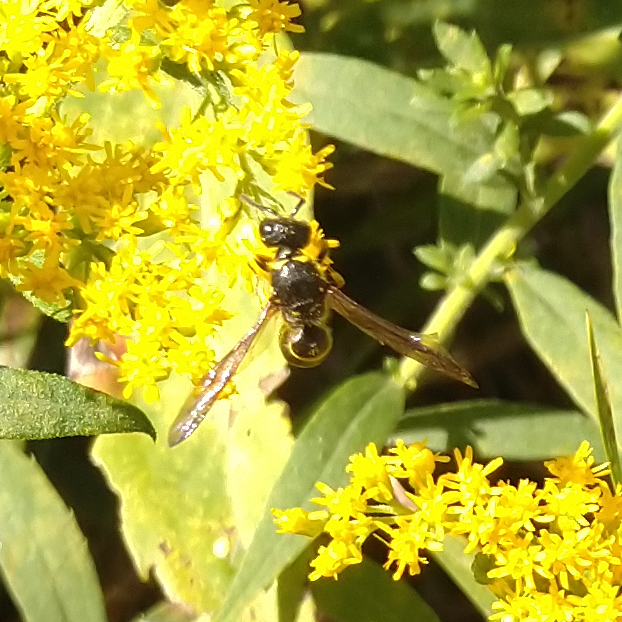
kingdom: Animalia
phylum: Arthropoda
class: Insecta
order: Hymenoptera
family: Vespidae
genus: Ancistrocerus
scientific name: Ancistrocerus
